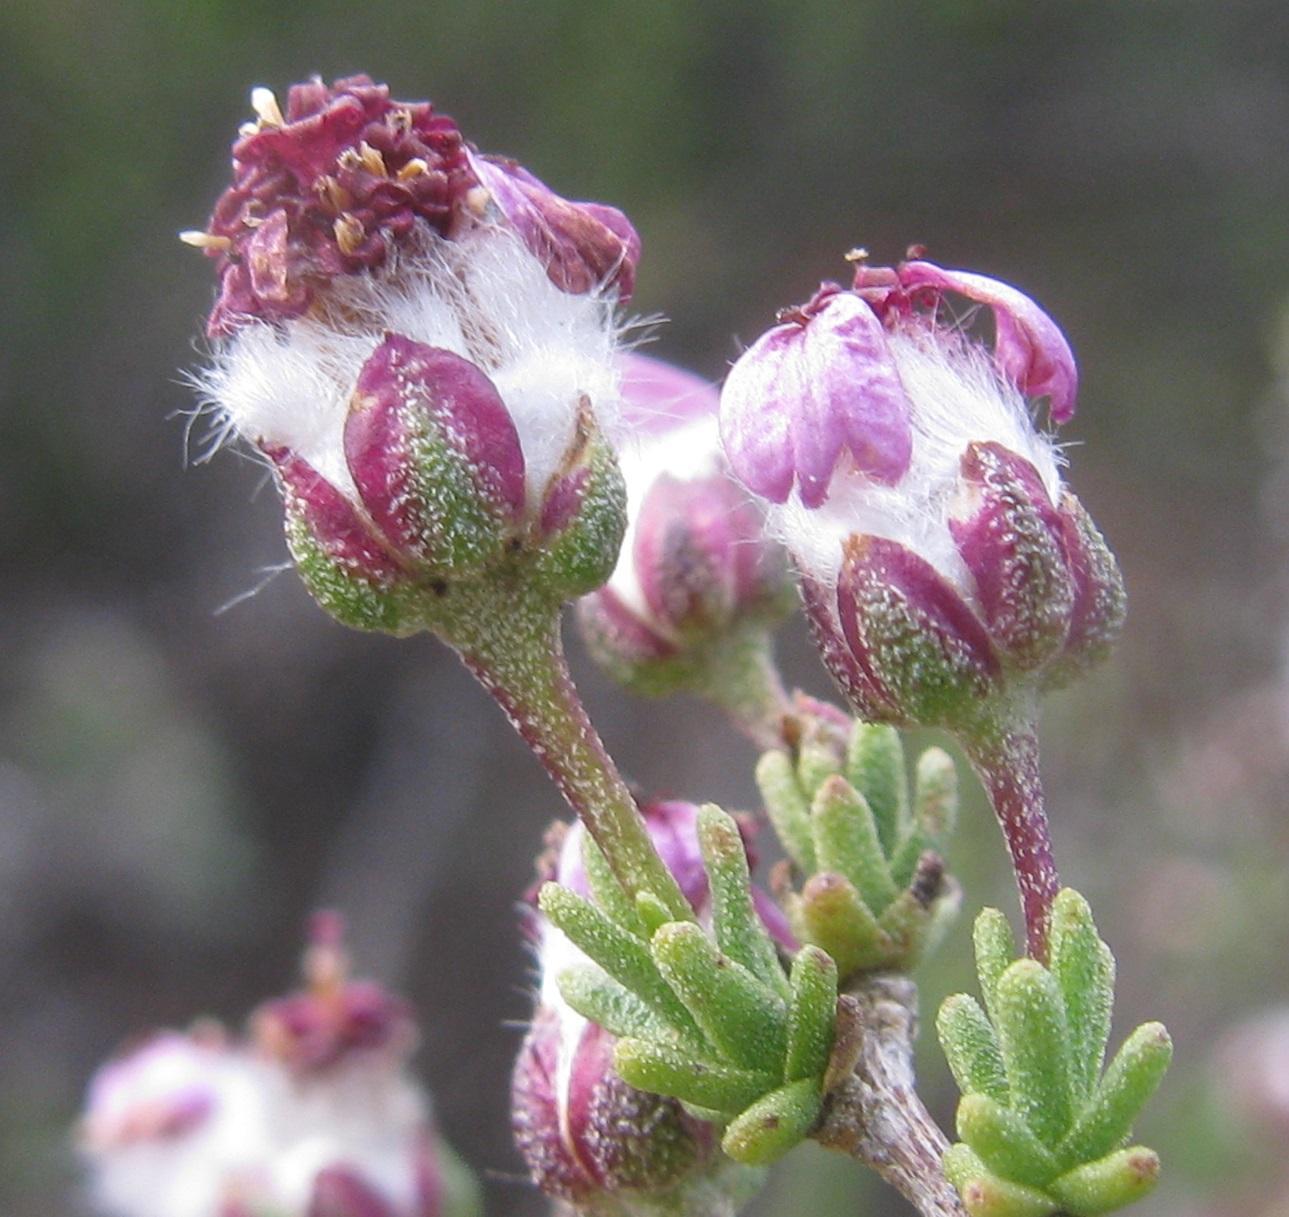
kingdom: Plantae
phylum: Tracheophyta
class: Magnoliopsida
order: Asterales
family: Asteraceae
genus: Eriocephalus
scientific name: Eriocephalus purpureus
